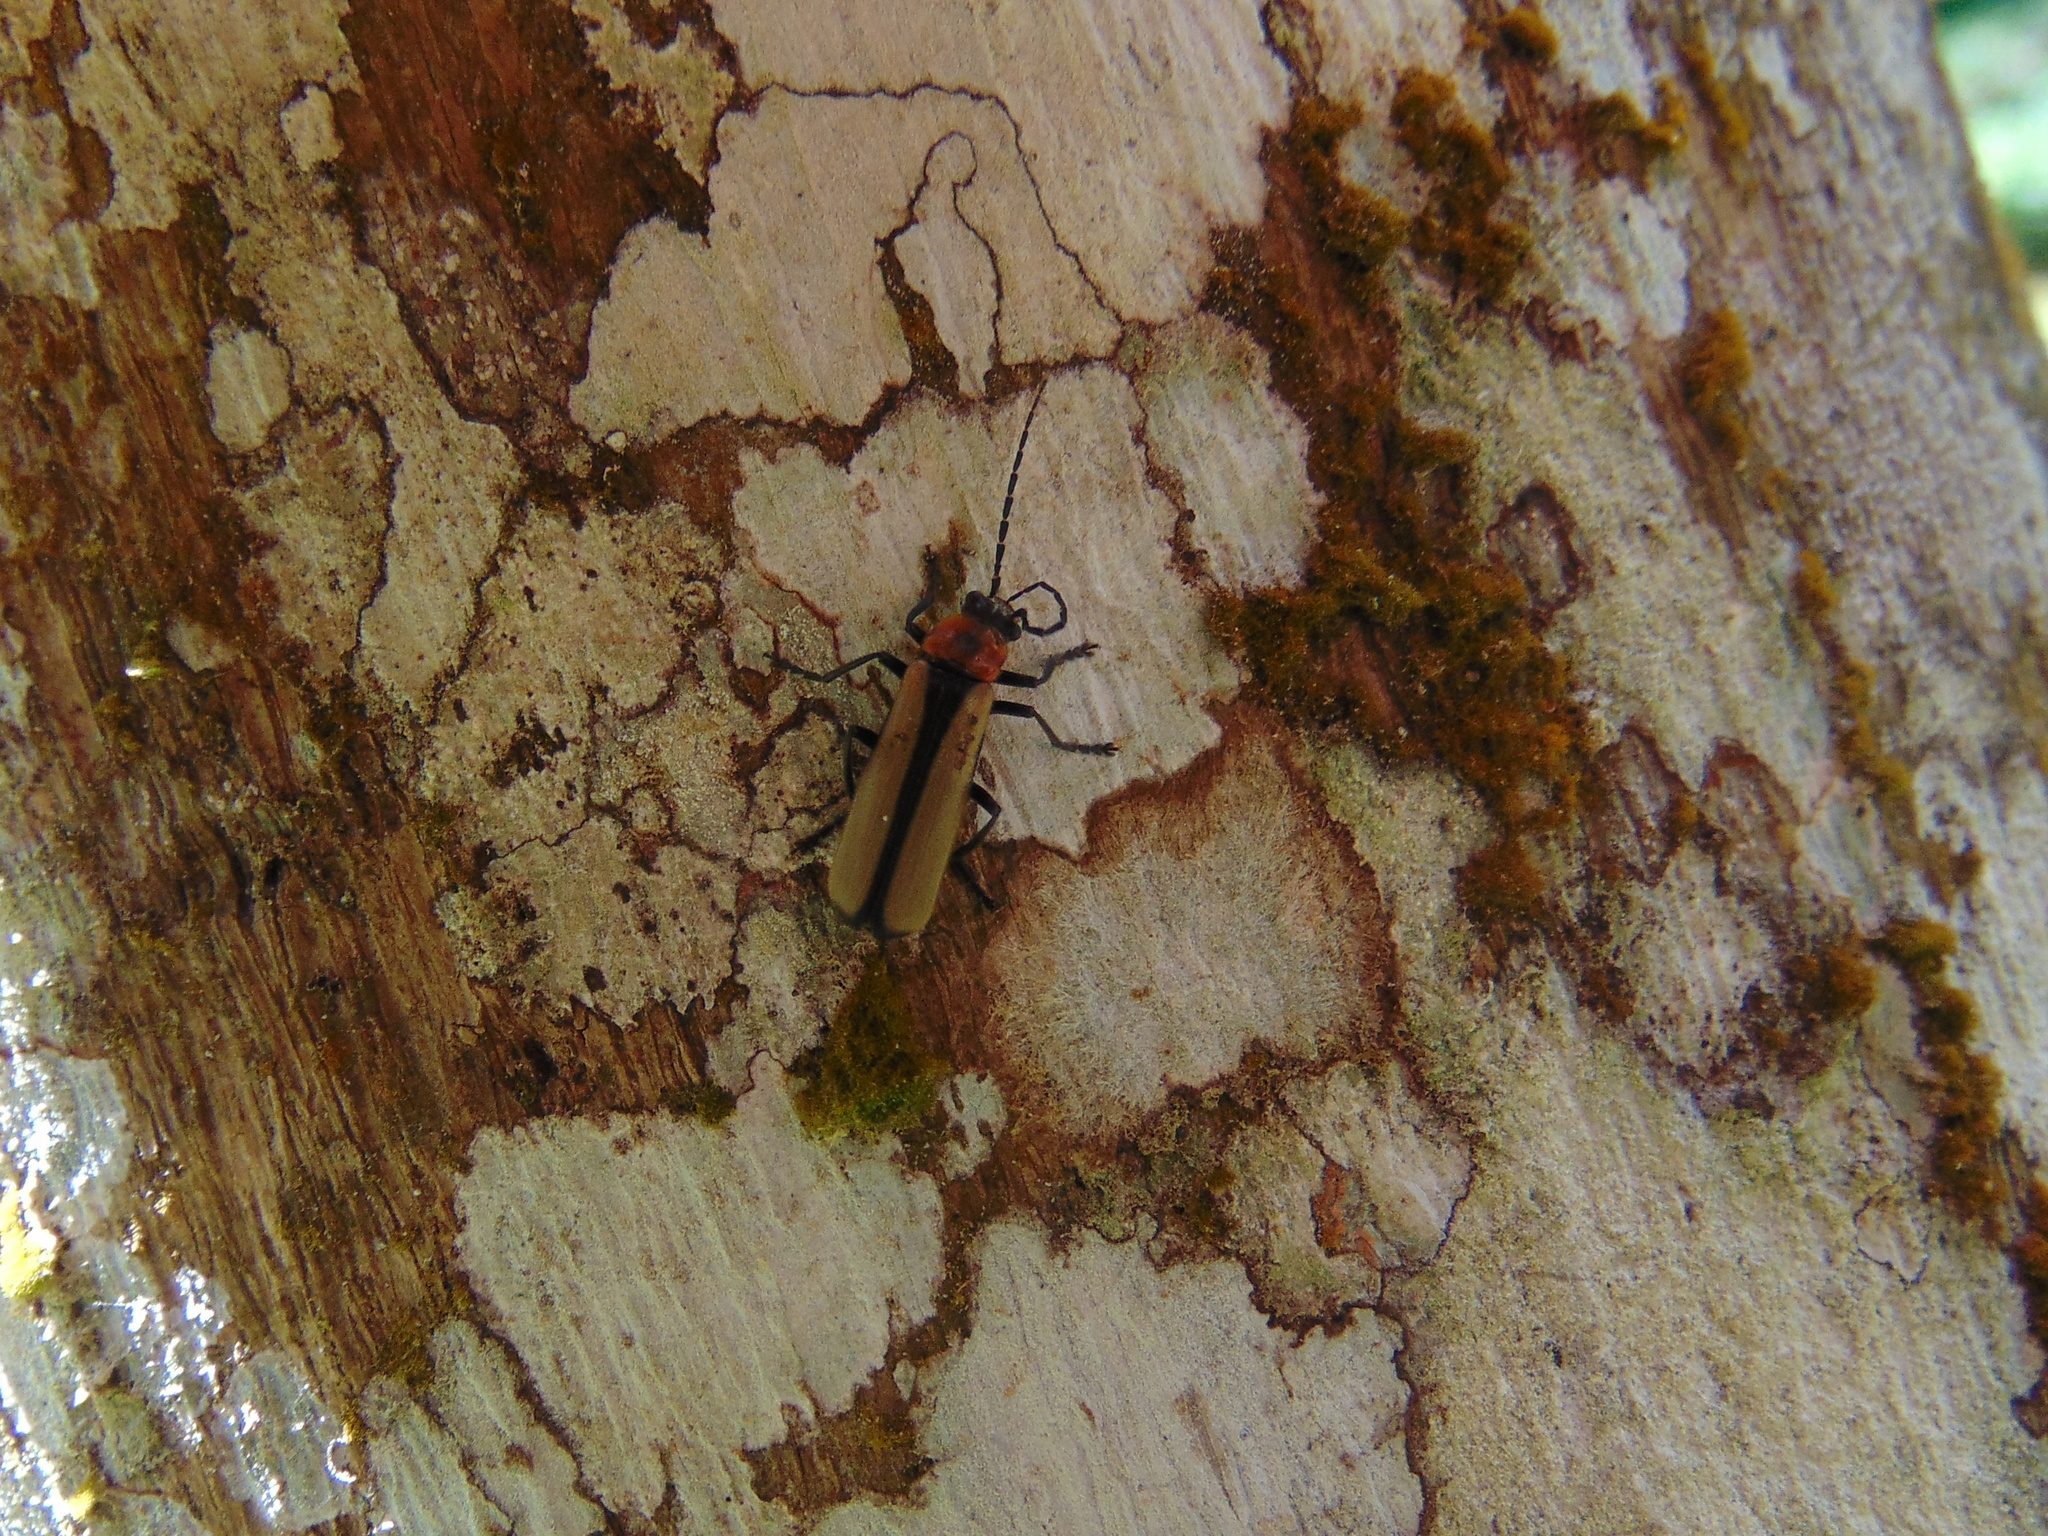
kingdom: Animalia
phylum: Arthropoda
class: Insecta
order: Coleoptera
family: Cantharidae
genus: Discodon
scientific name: Discodon
